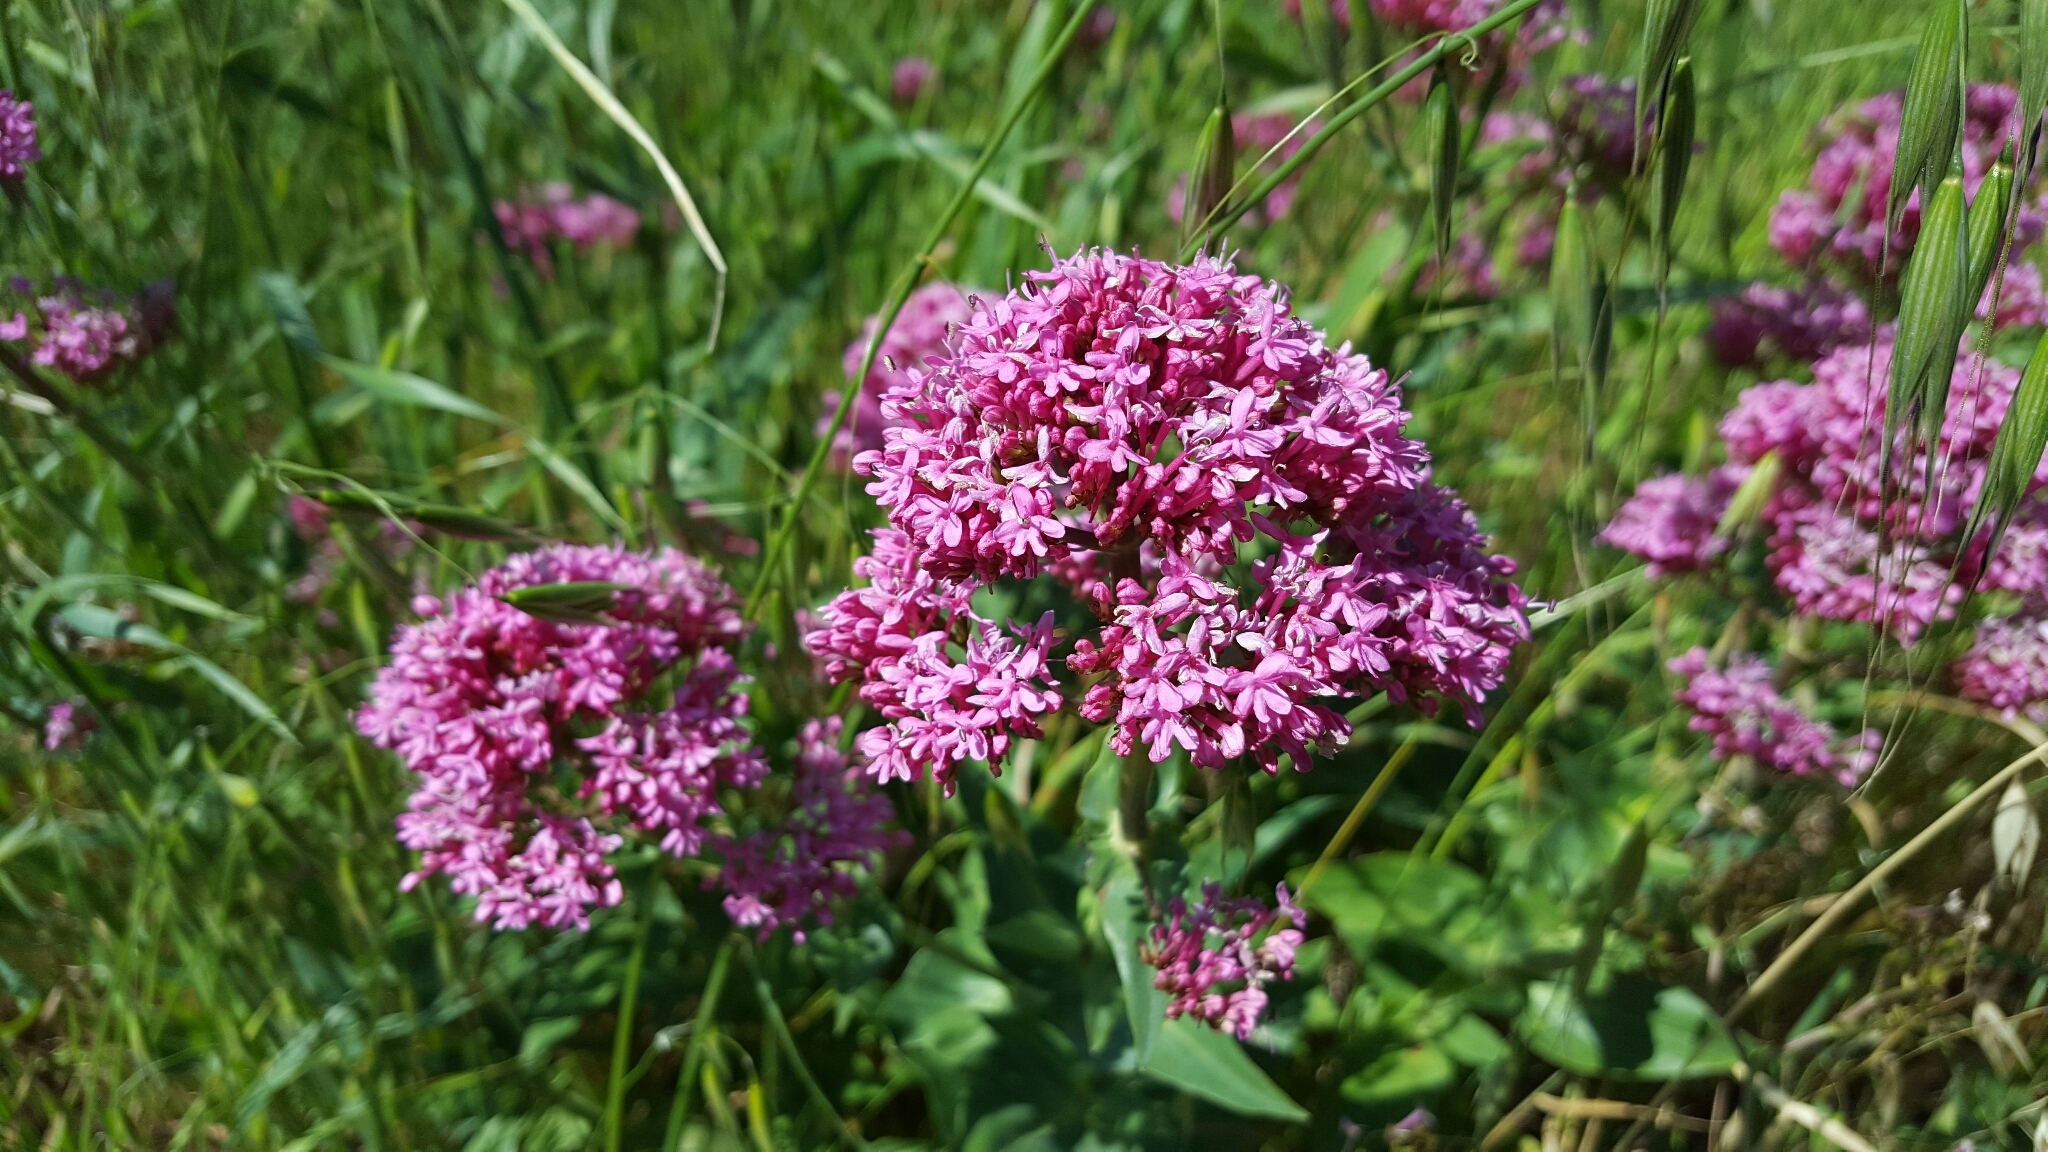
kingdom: Plantae
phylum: Tracheophyta
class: Magnoliopsida
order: Dipsacales
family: Caprifoliaceae
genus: Centranthus
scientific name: Centranthus ruber
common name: Red valerian
